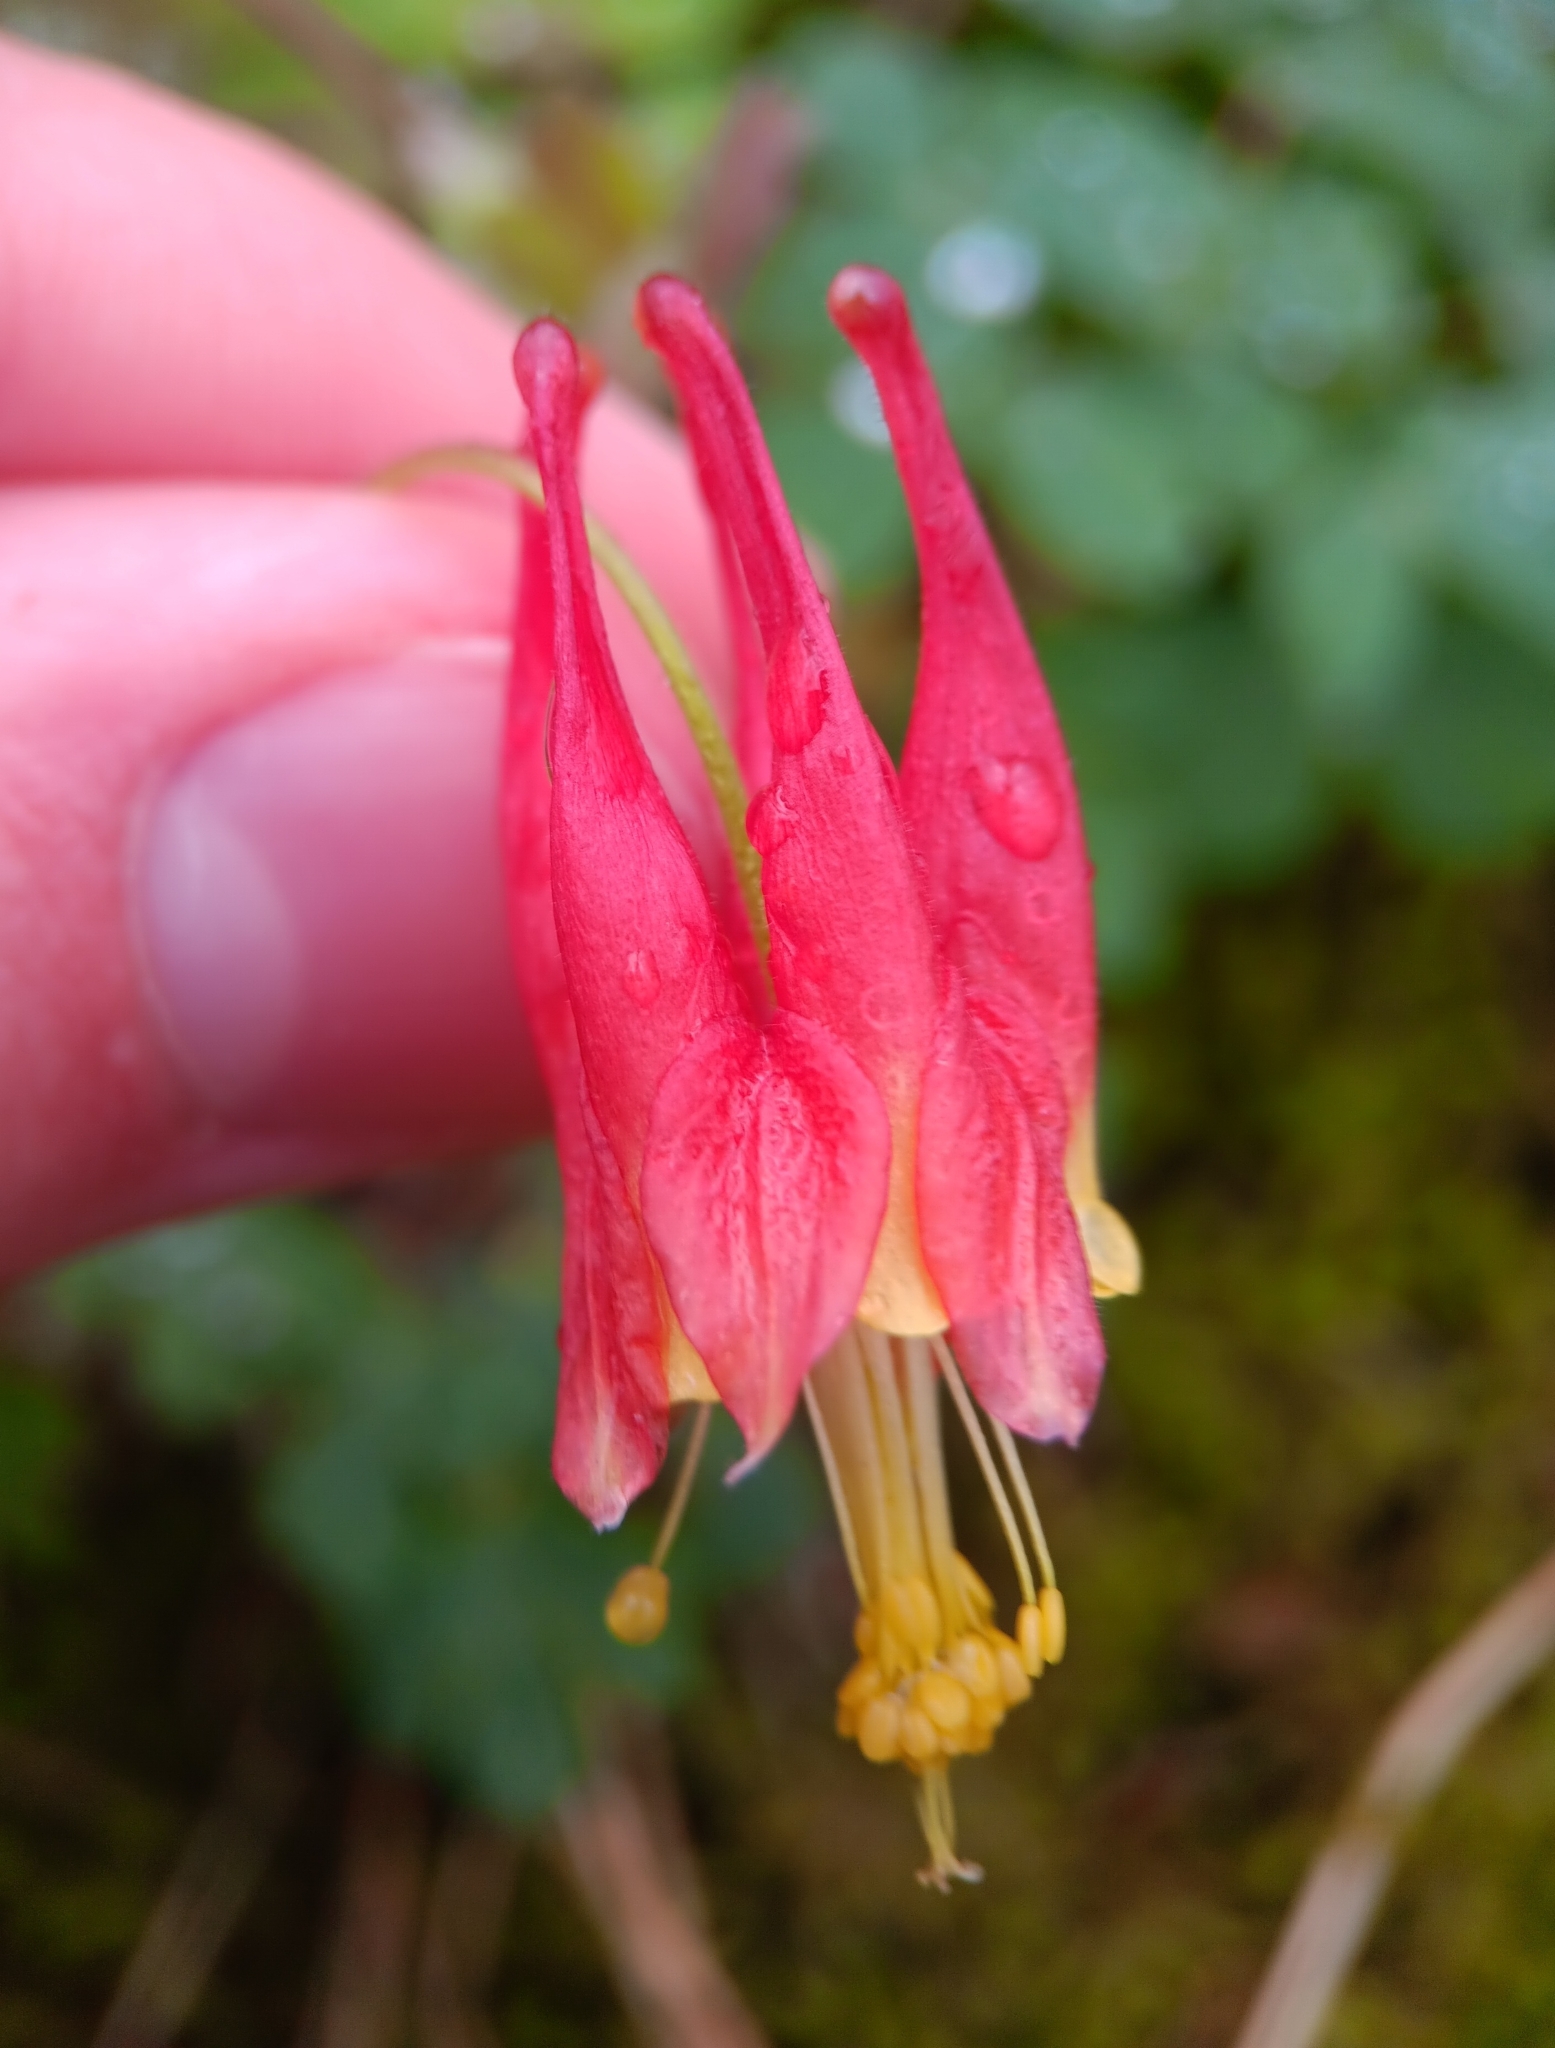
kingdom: Plantae
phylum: Tracheophyta
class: Magnoliopsida
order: Ranunculales
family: Ranunculaceae
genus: Aquilegia
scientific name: Aquilegia canadensis
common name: American columbine
